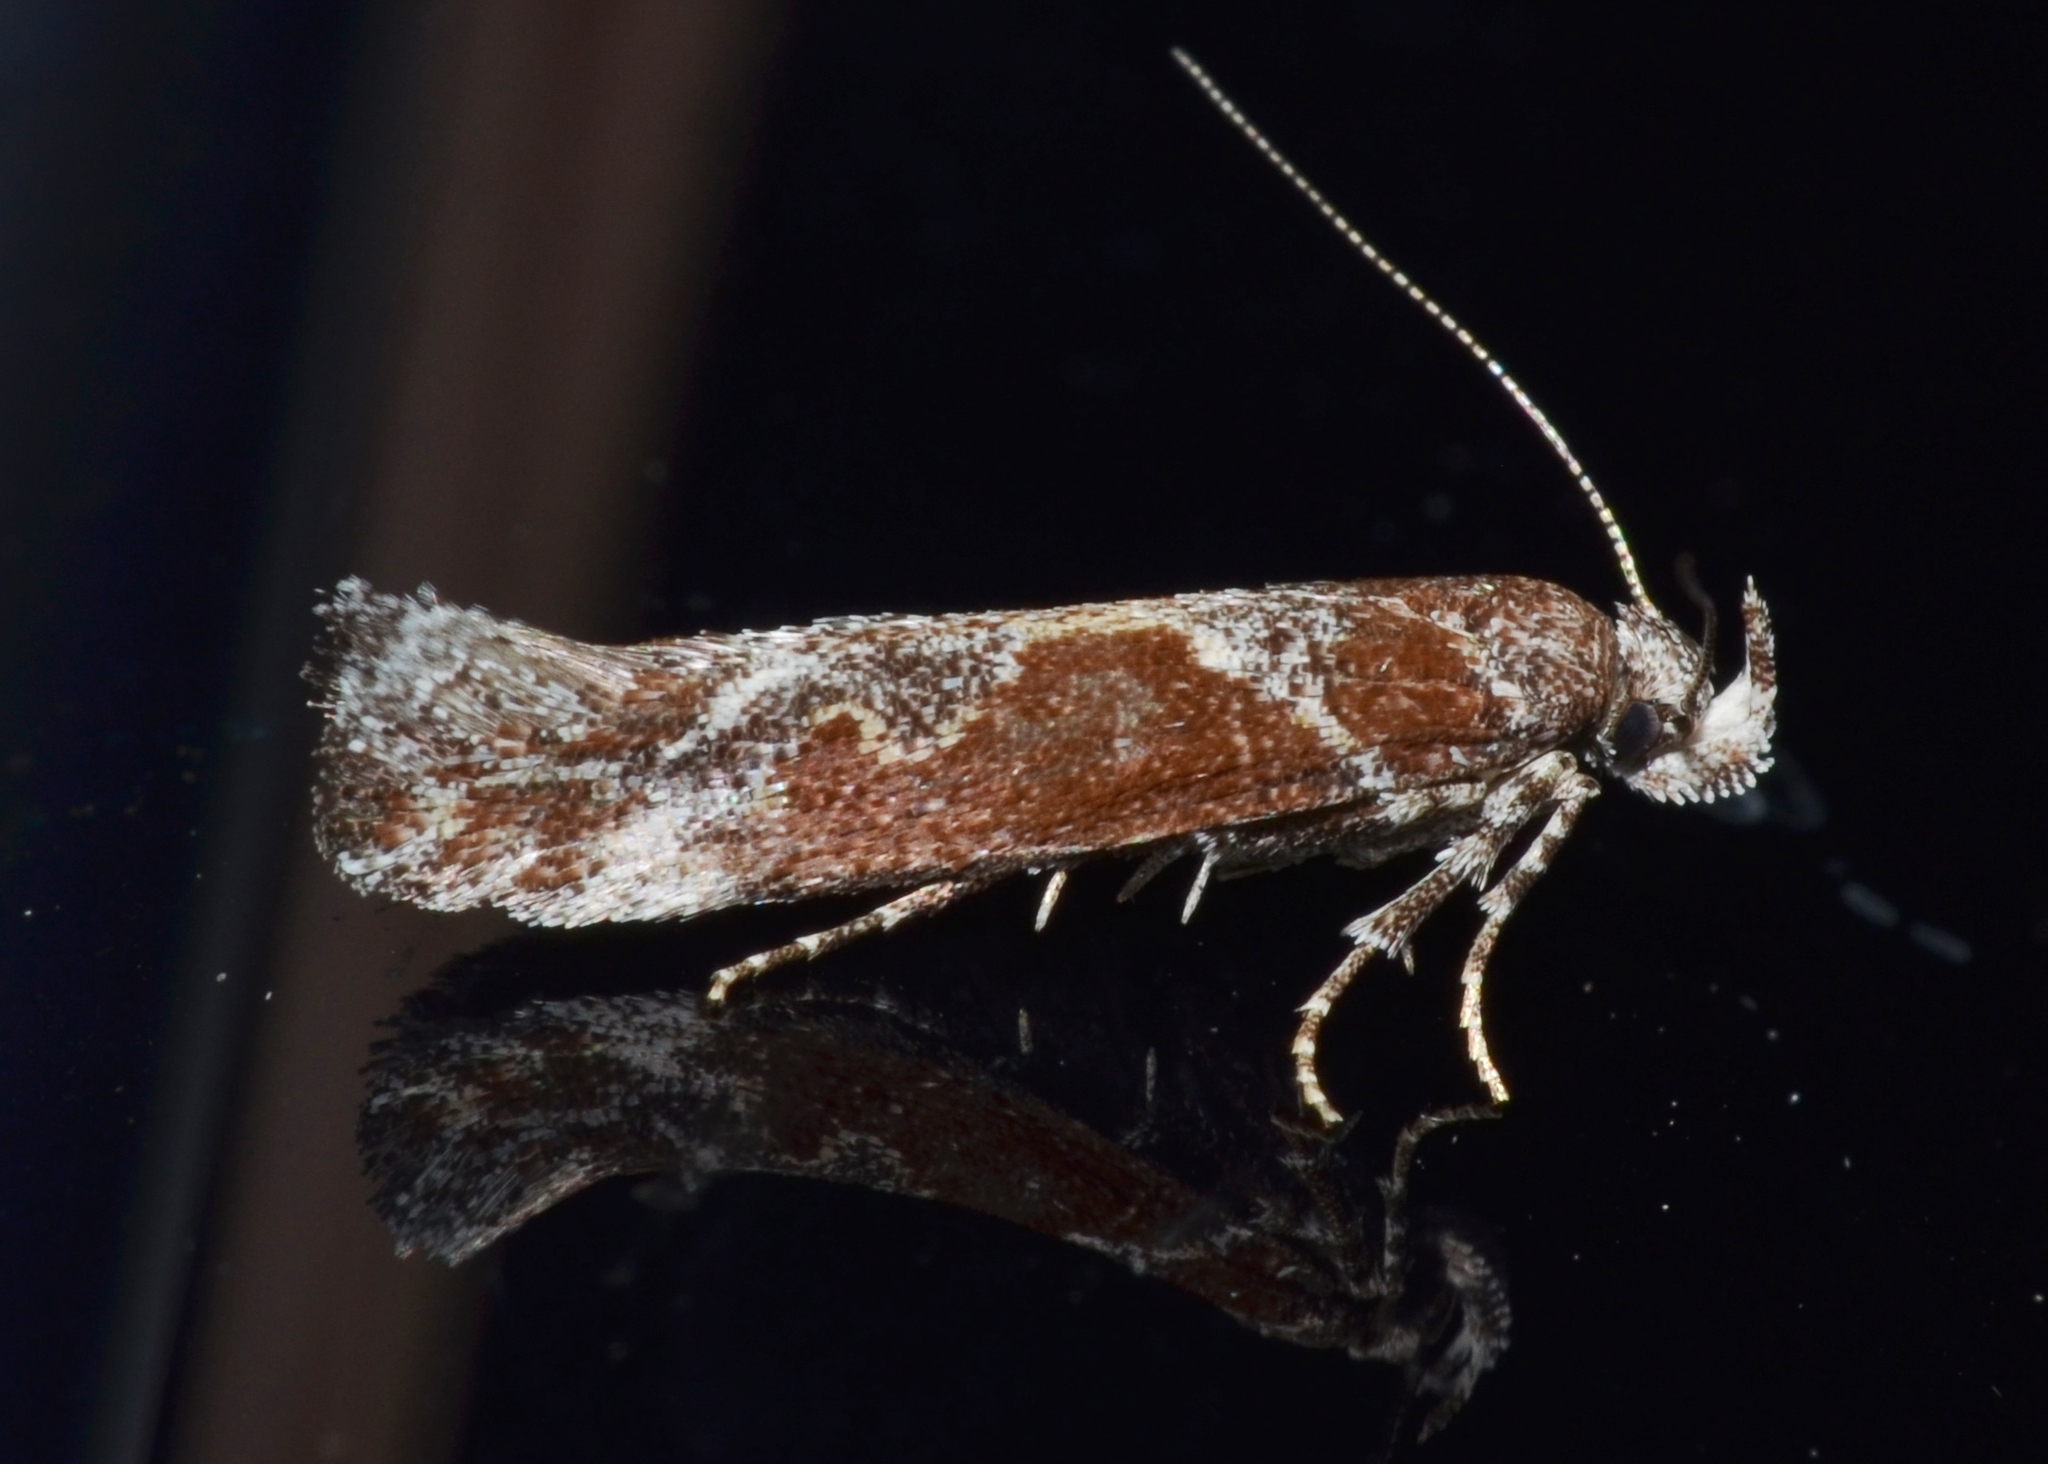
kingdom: Animalia
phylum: Arthropoda
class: Insecta
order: Lepidoptera
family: Gelechiidae
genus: Gnorimoschema
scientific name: Gnorimoschema gallaesolidaginis
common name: Goldenrod elliptical-gall moth
